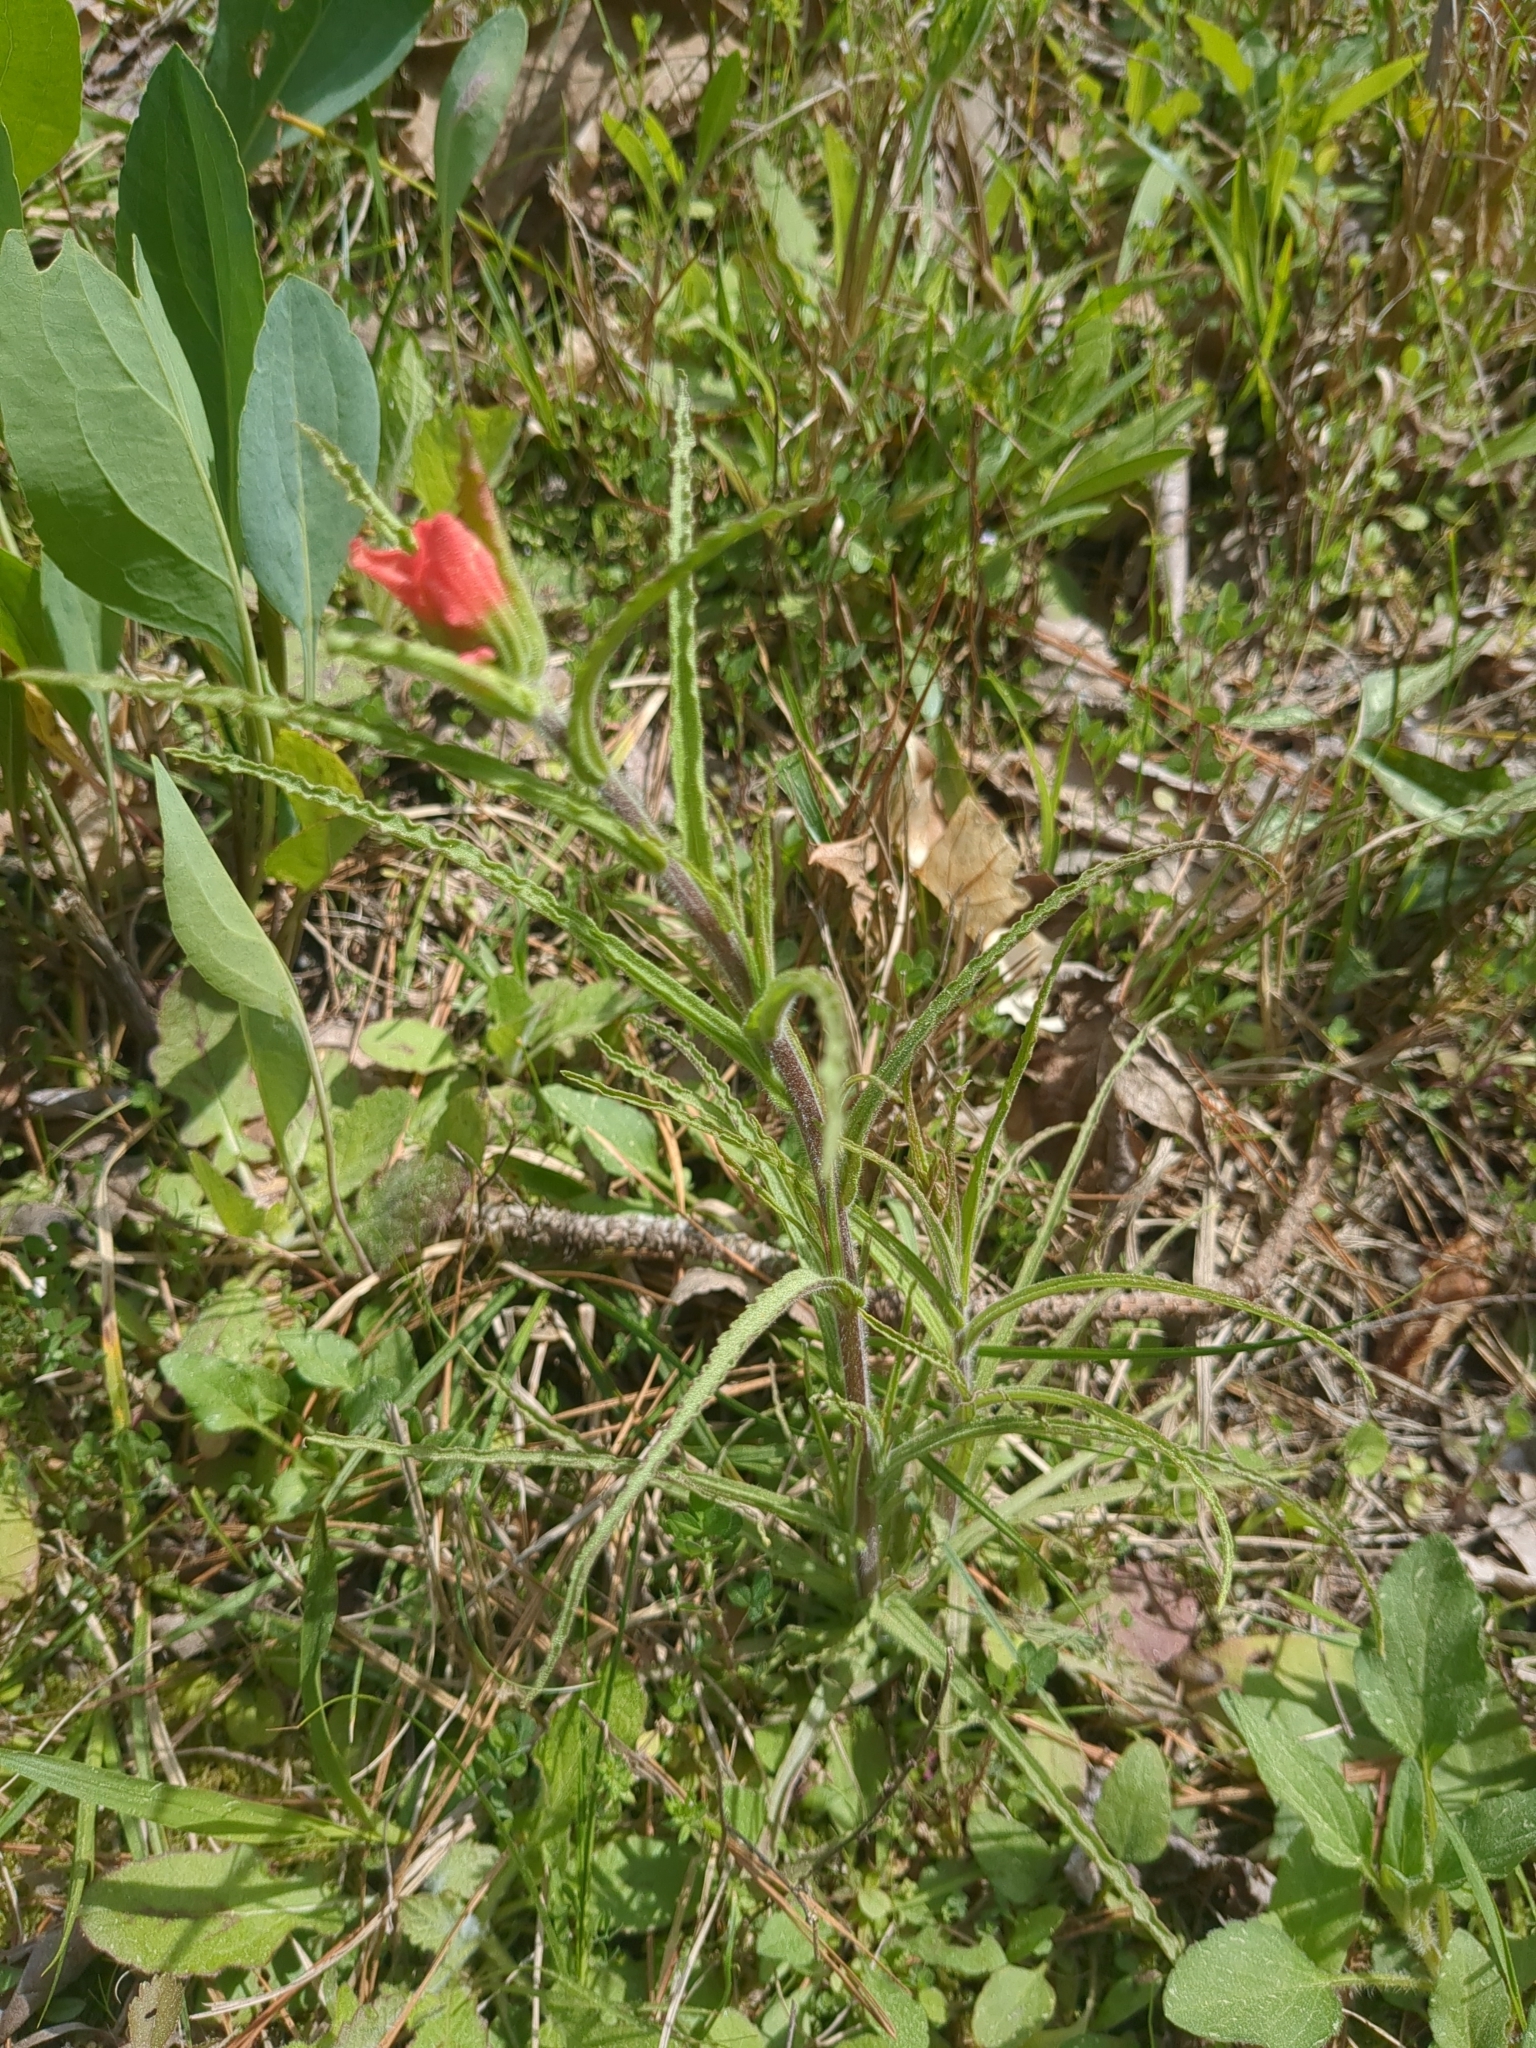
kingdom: Plantae
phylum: Tracheophyta
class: Magnoliopsida
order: Lamiales
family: Orobanchaceae
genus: Castilleja
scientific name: Castilleja indivisa
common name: Texas paintbrush
